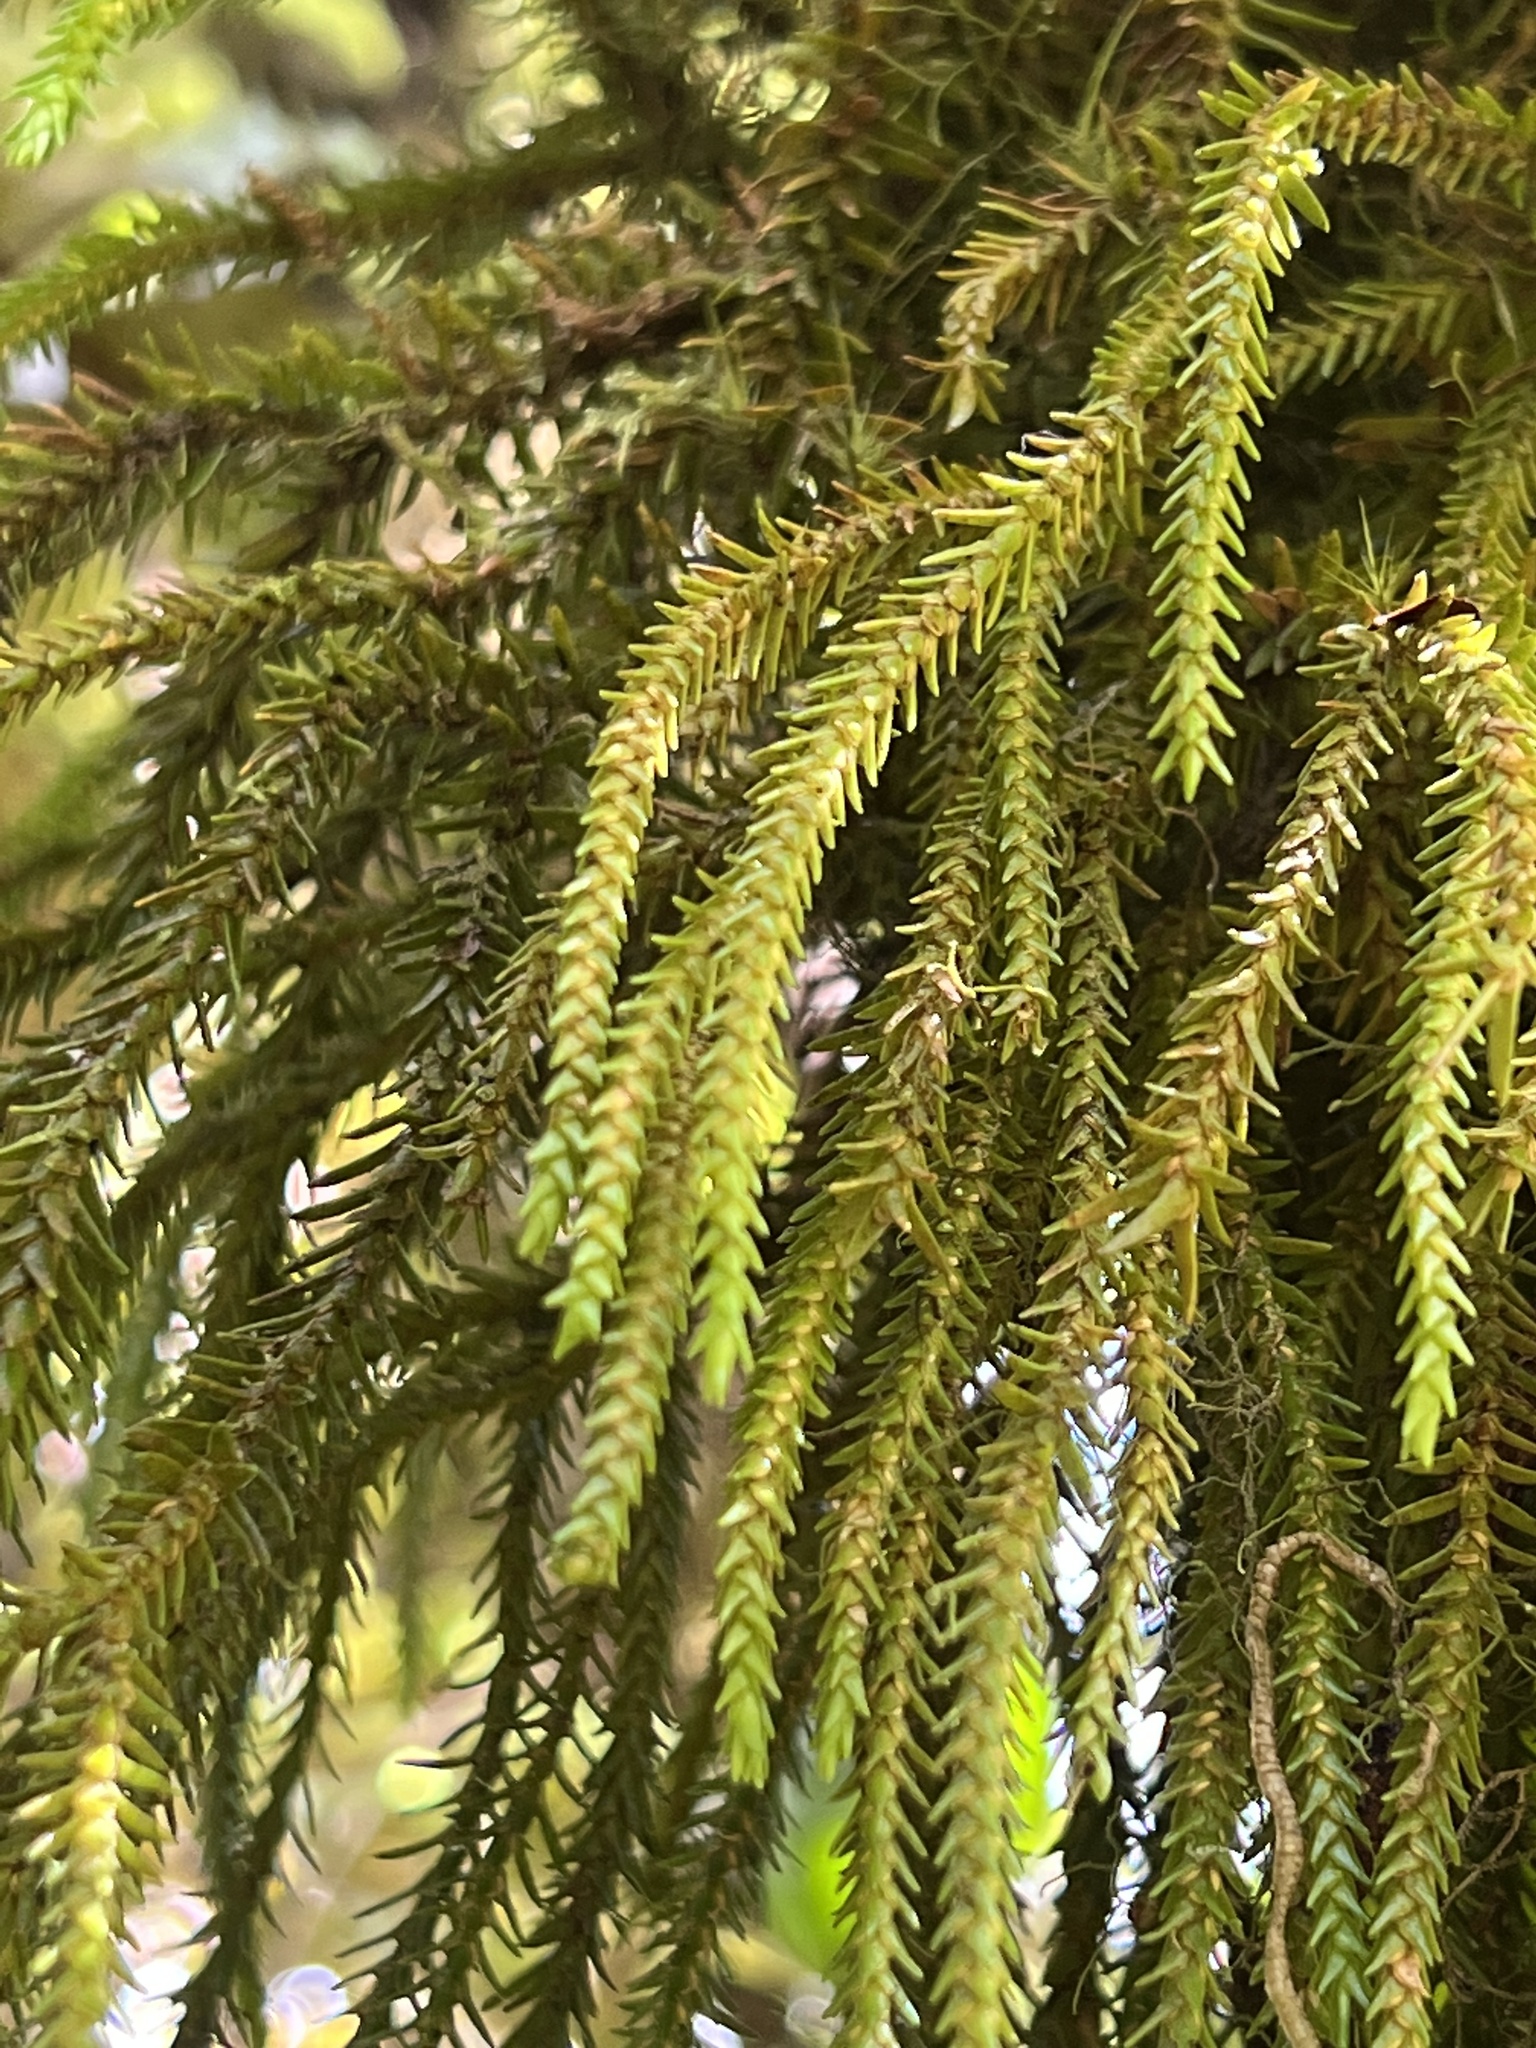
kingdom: Plantae
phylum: Tracheophyta
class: Lycopodiopsida
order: Lycopodiales
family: Lycopodiaceae
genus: Phlegmariurus
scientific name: Phlegmariurus varius
